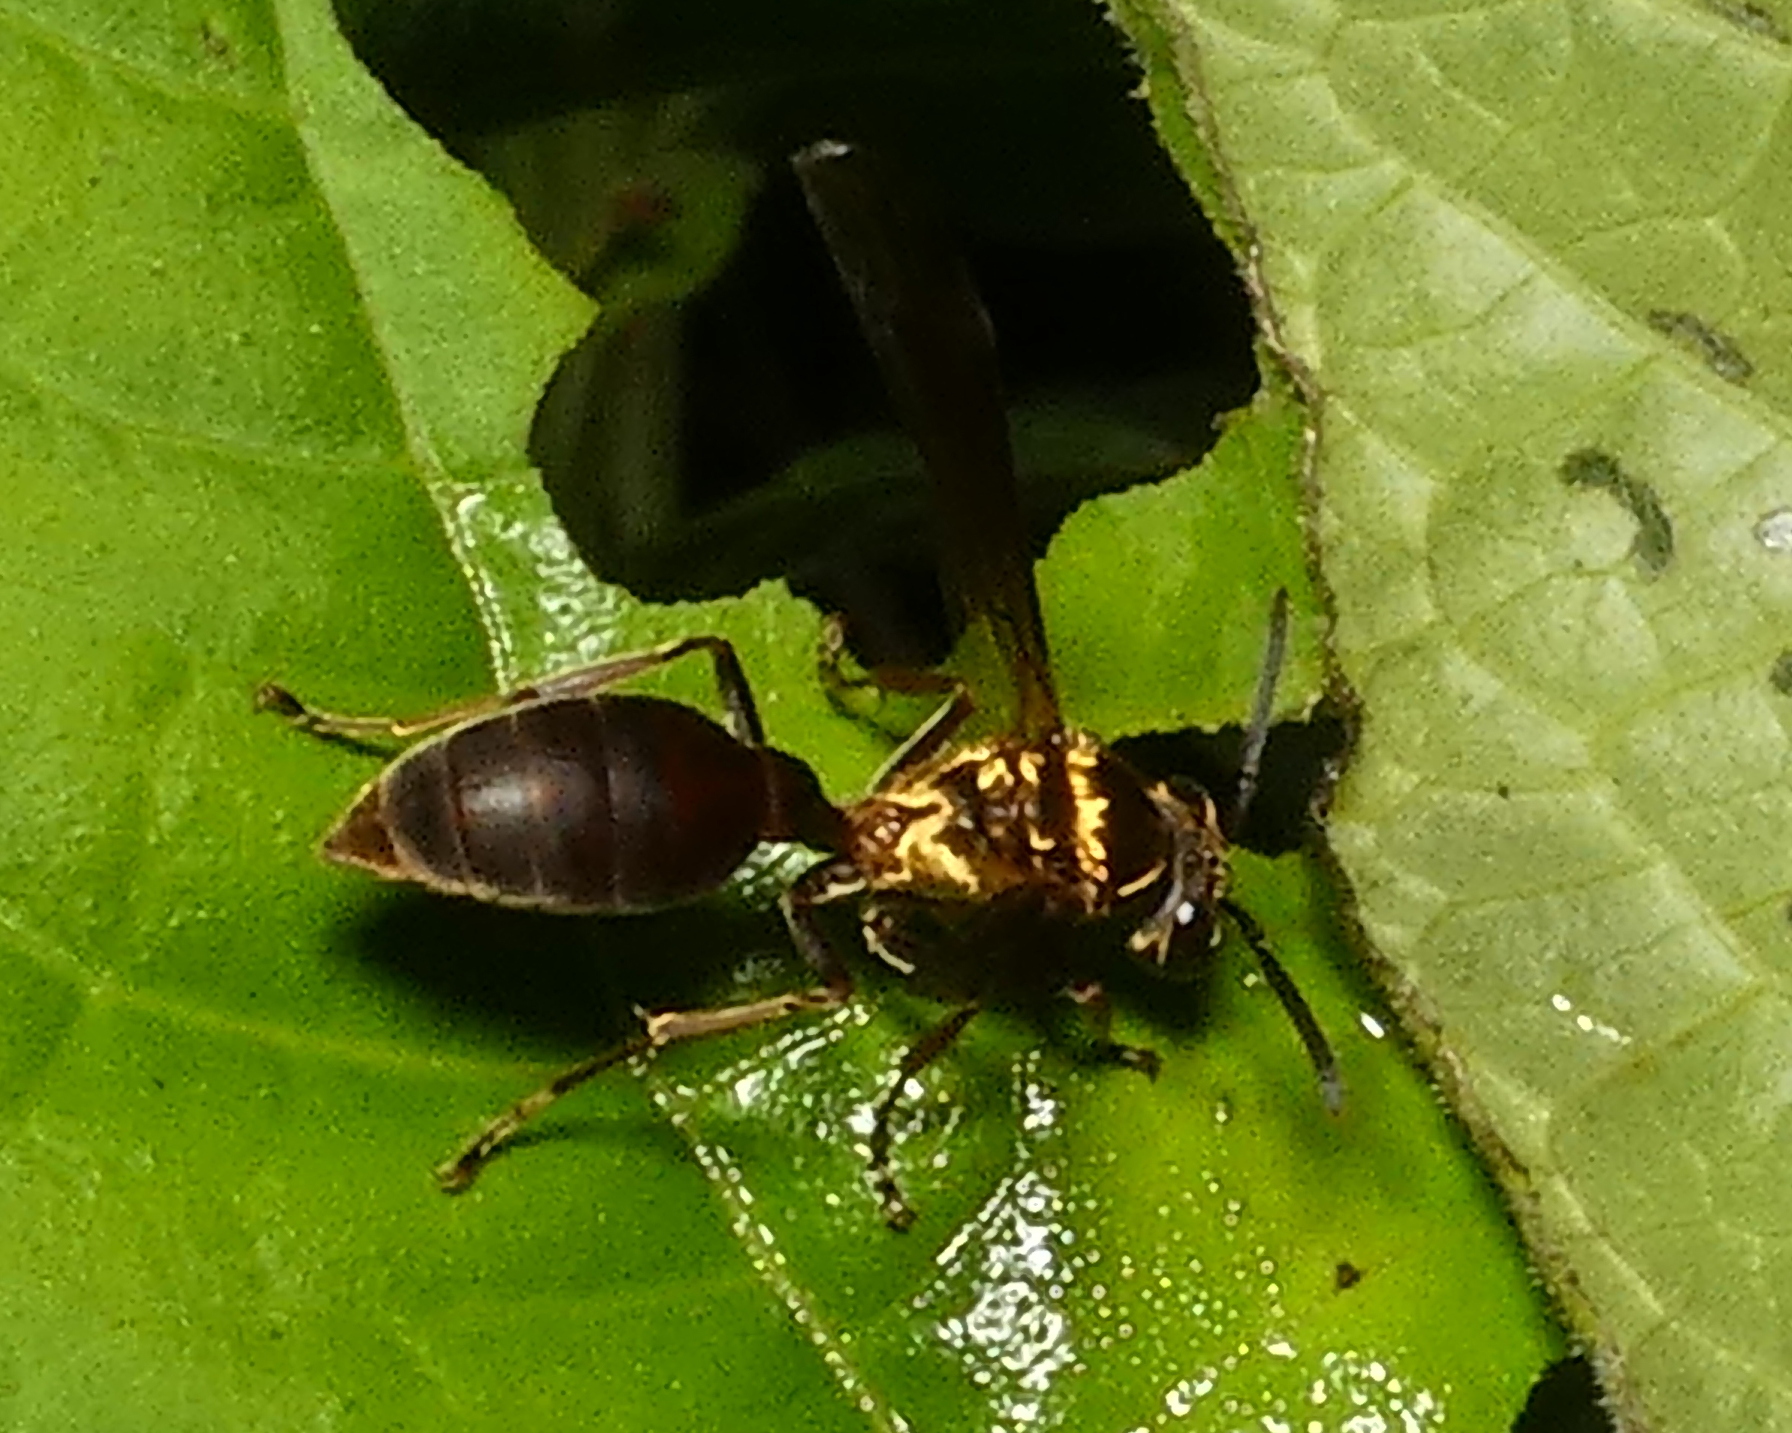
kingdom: Animalia
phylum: Arthropoda
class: Insecta
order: Hymenoptera
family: Eumenidae
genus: Polybia
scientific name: Polybia chrysothorax
